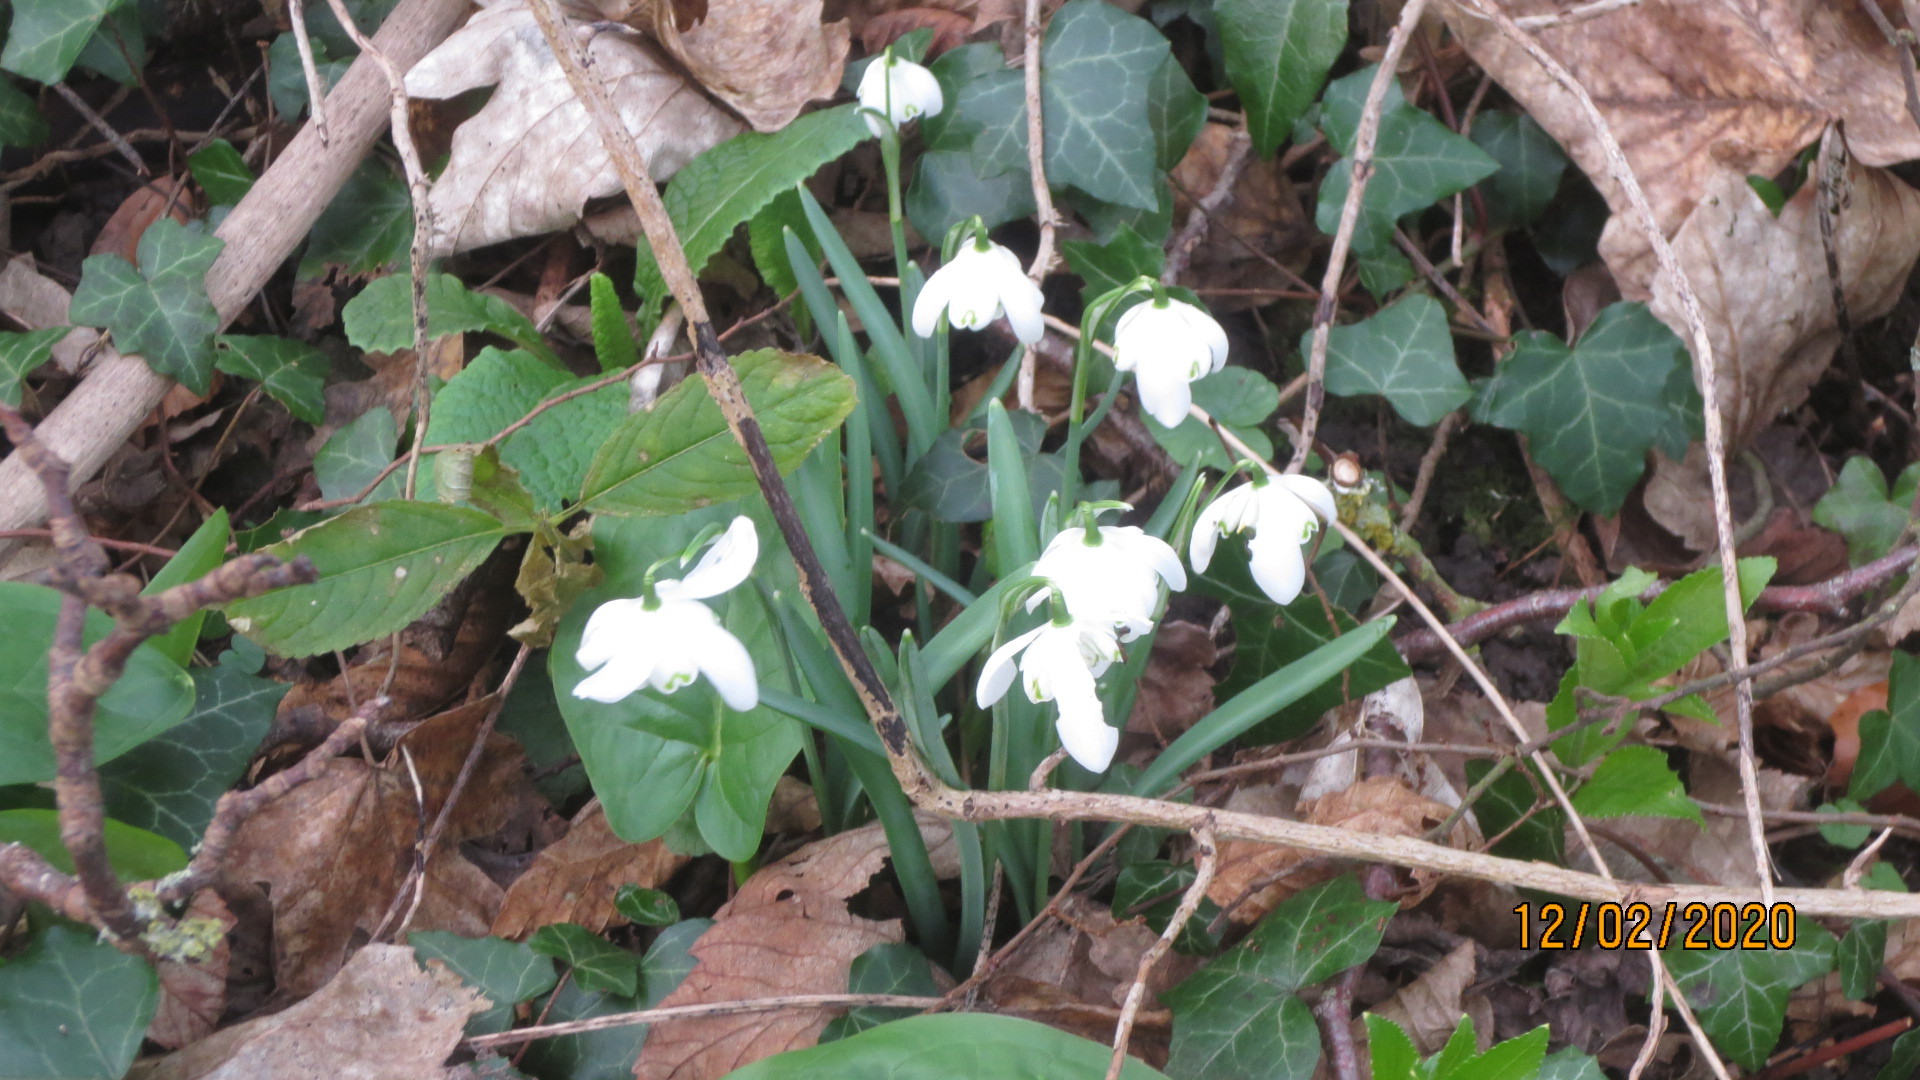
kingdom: Plantae
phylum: Tracheophyta
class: Liliopsida
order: Asparagales
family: Amaryllidaceae
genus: Galanthus
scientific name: Galanthus nivalis
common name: Snowdrop
